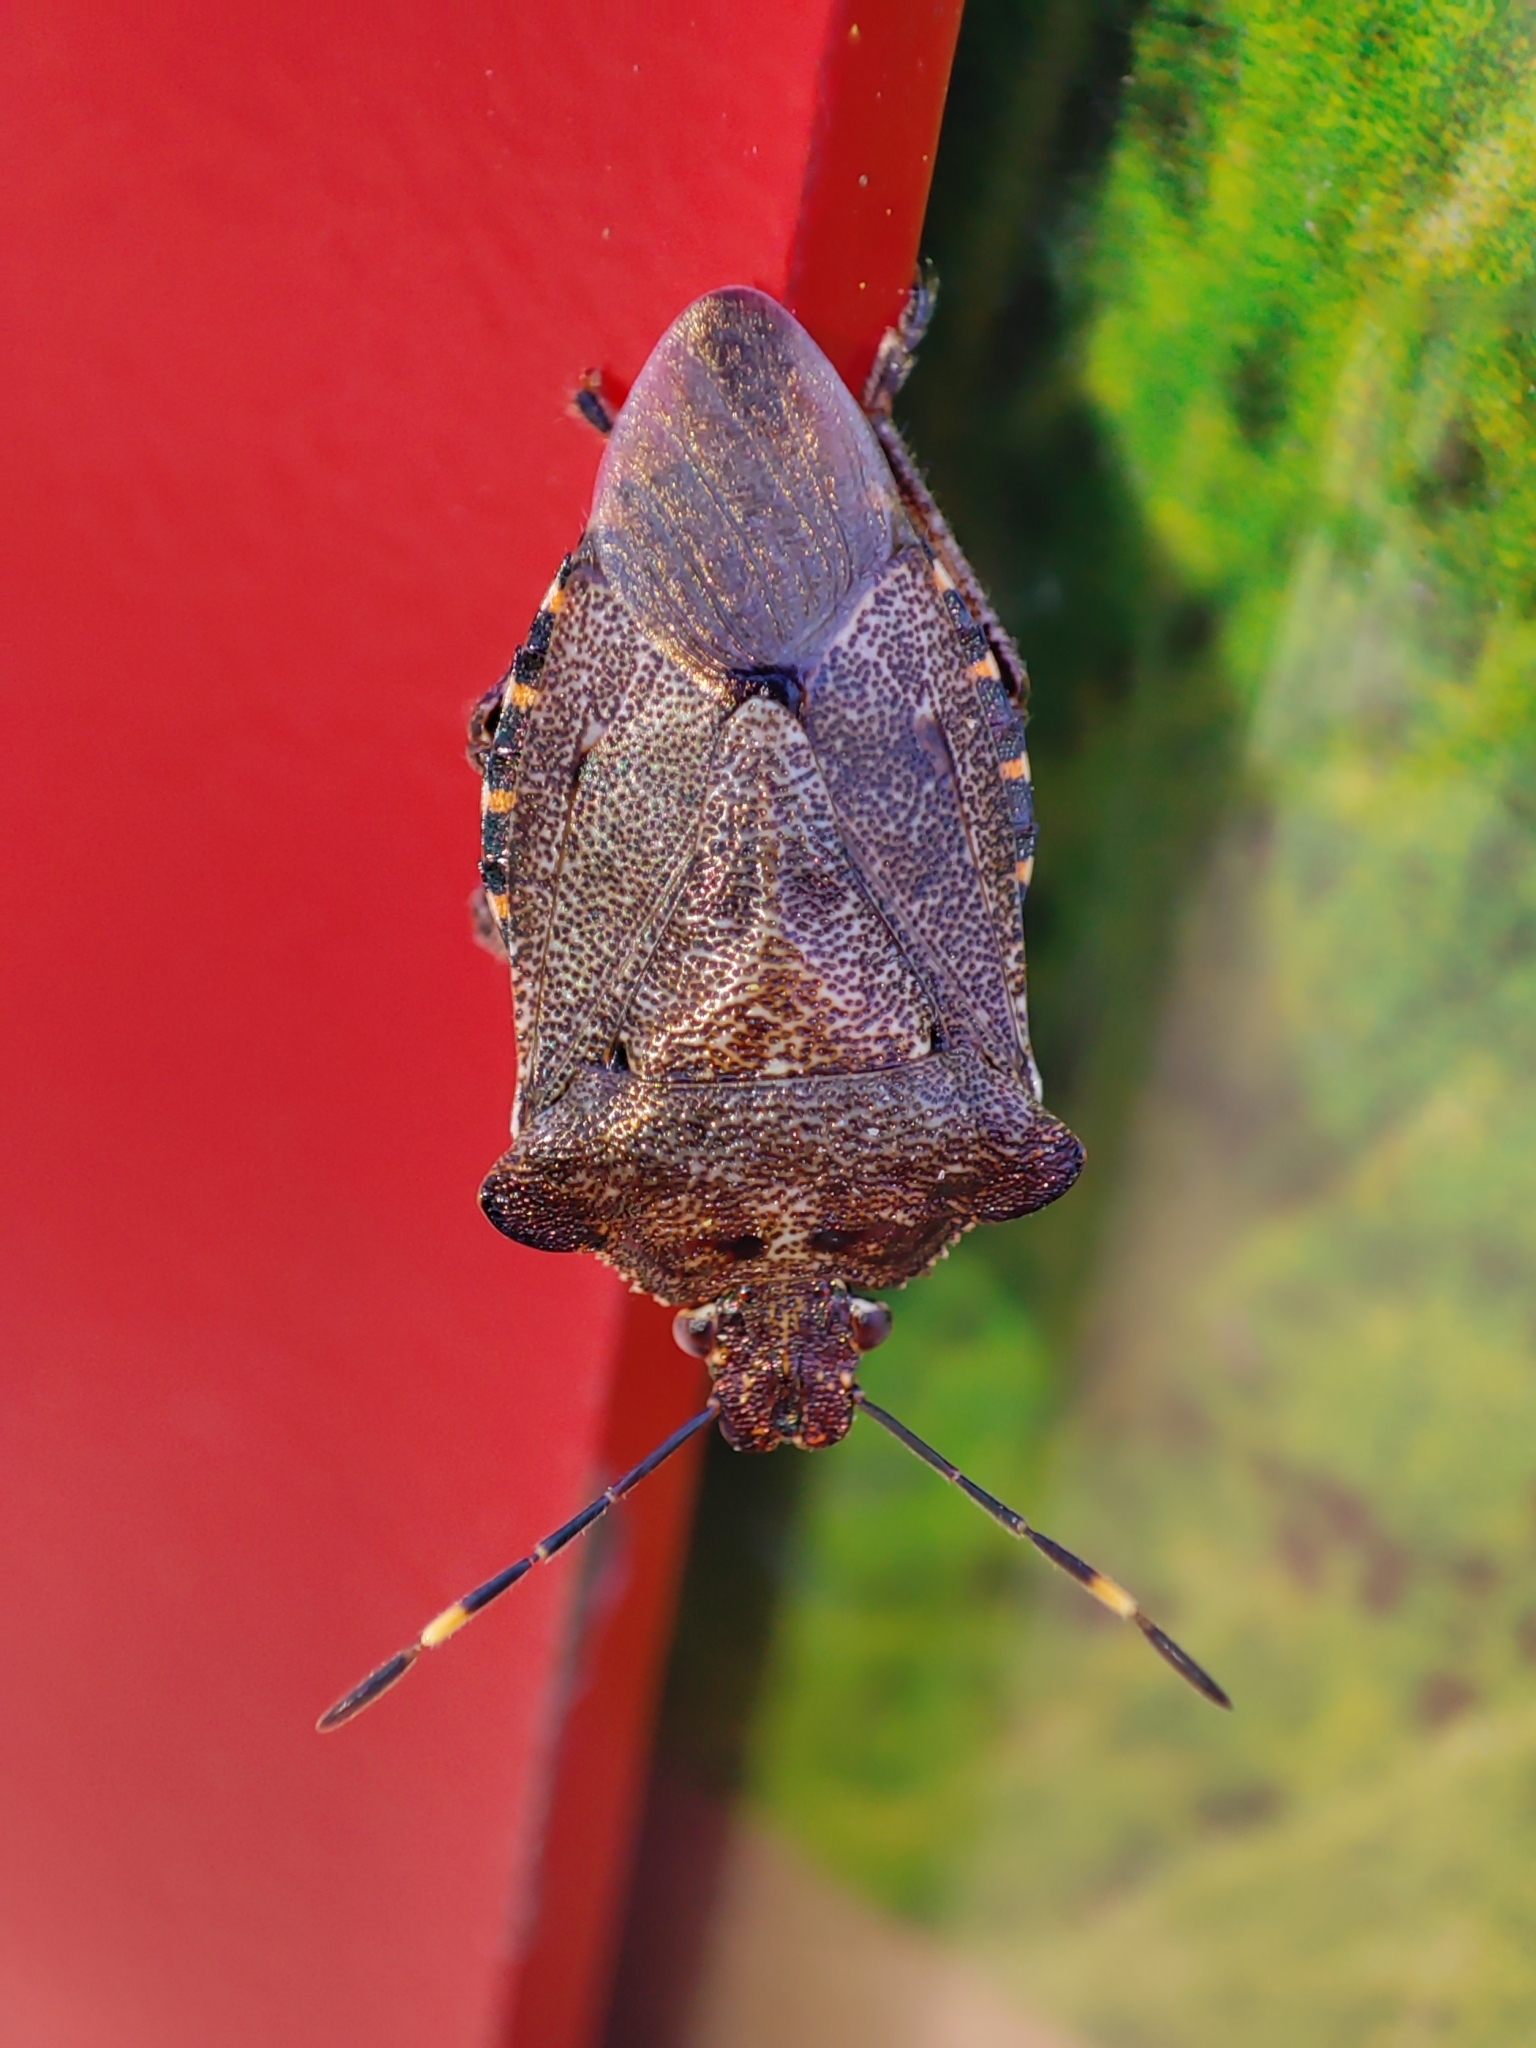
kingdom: Animalia
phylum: Arthropoda
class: Insecta
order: Hemiptera
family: Pentatomidae
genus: Troilus
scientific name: Troilus luridus
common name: Bronze shieldbug
